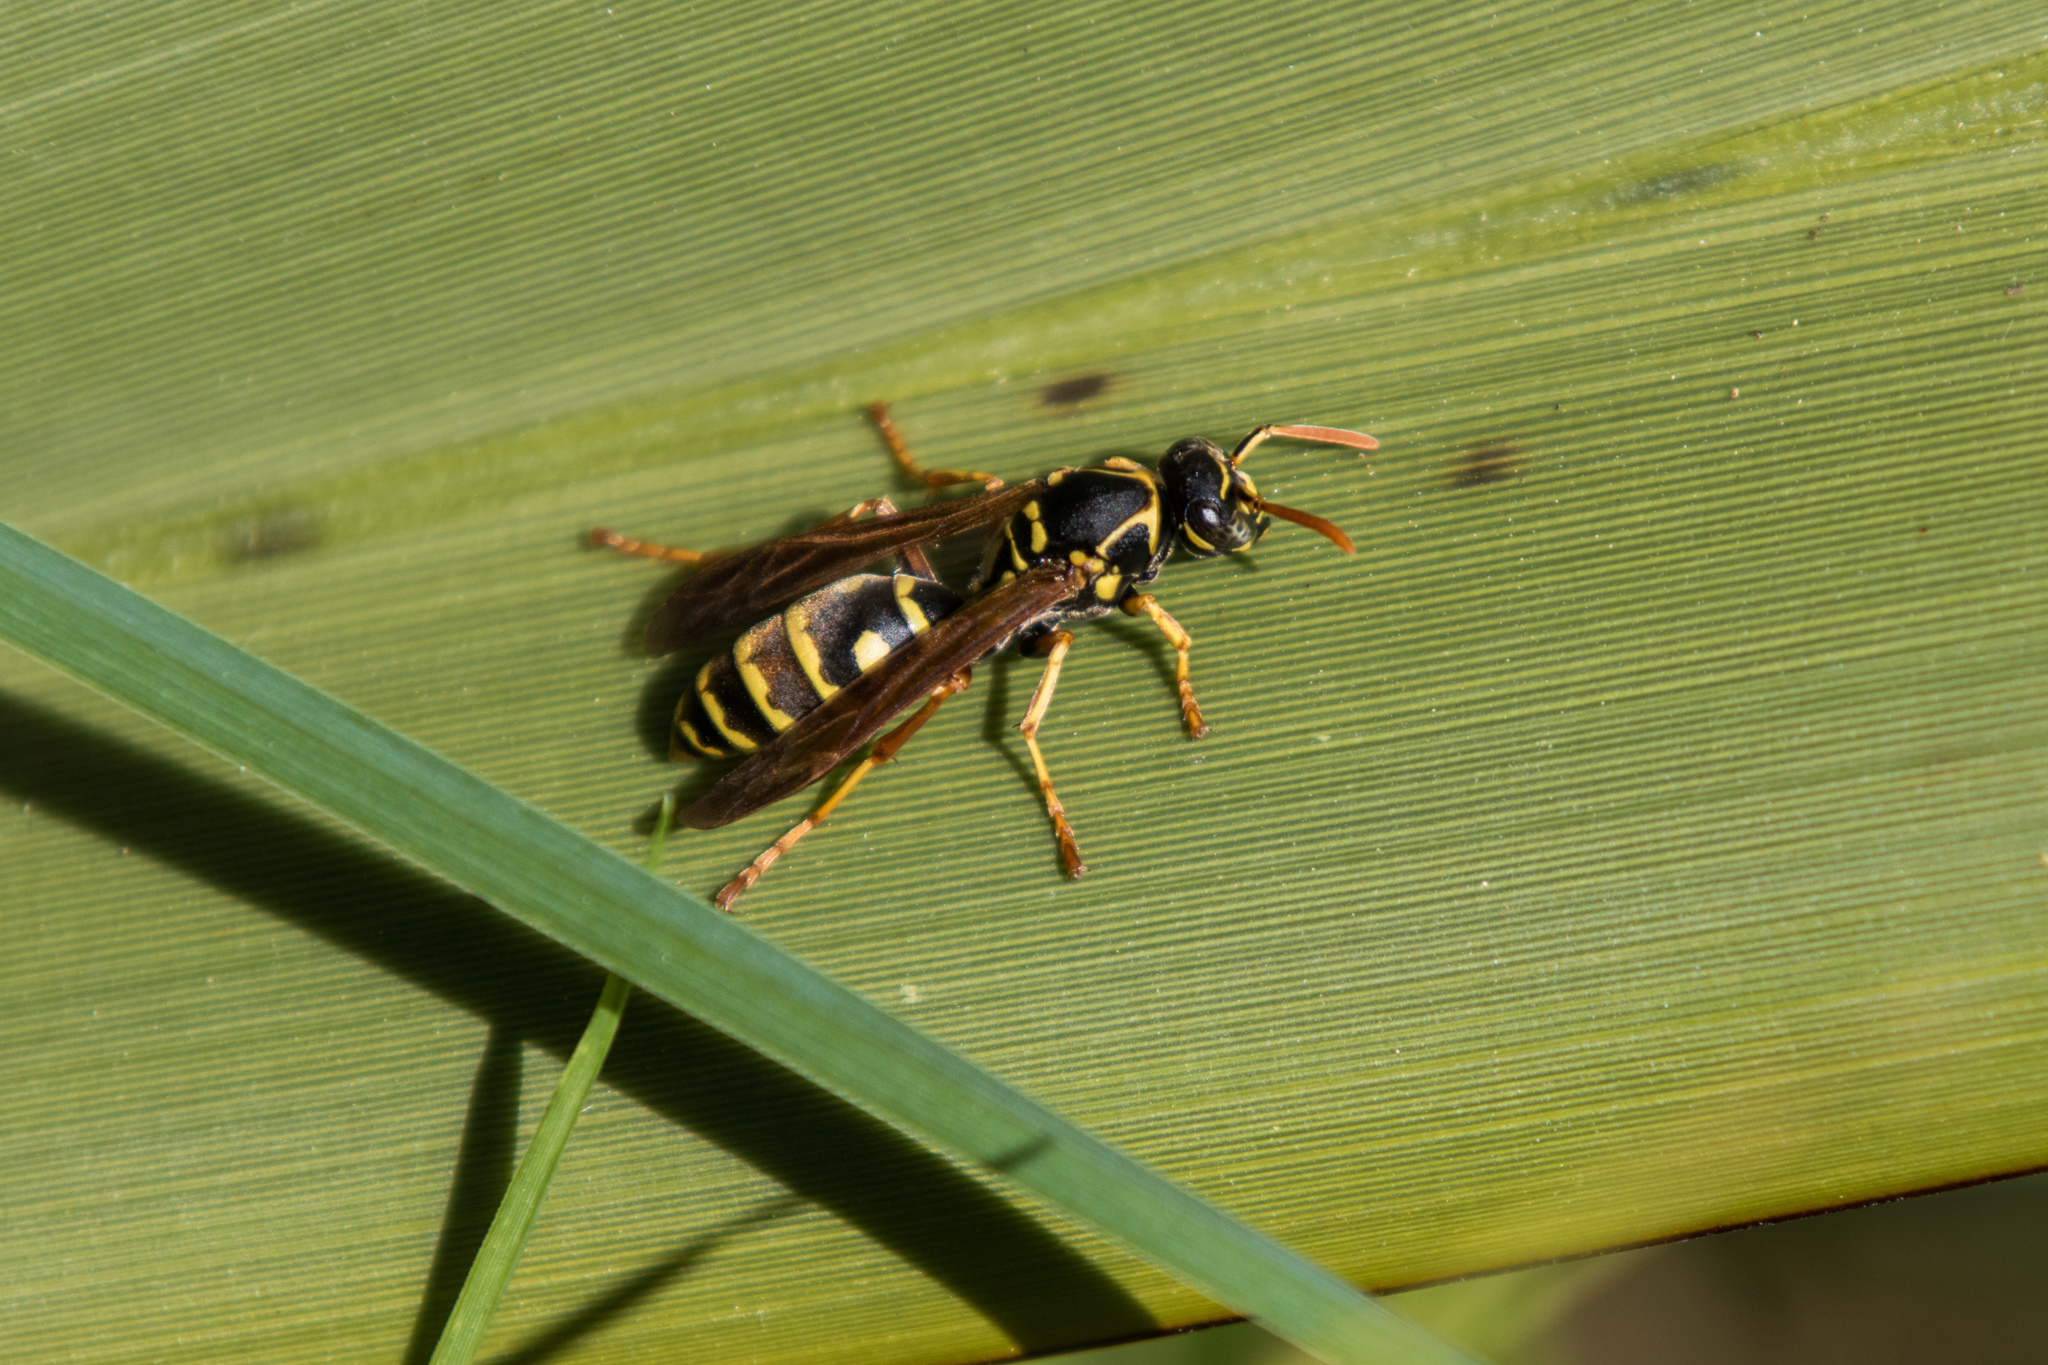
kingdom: Animalia
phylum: Arthropoda
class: Insecta
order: Hymenoptera
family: Eumenidae
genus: Polistes
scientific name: Polistes chinensis
